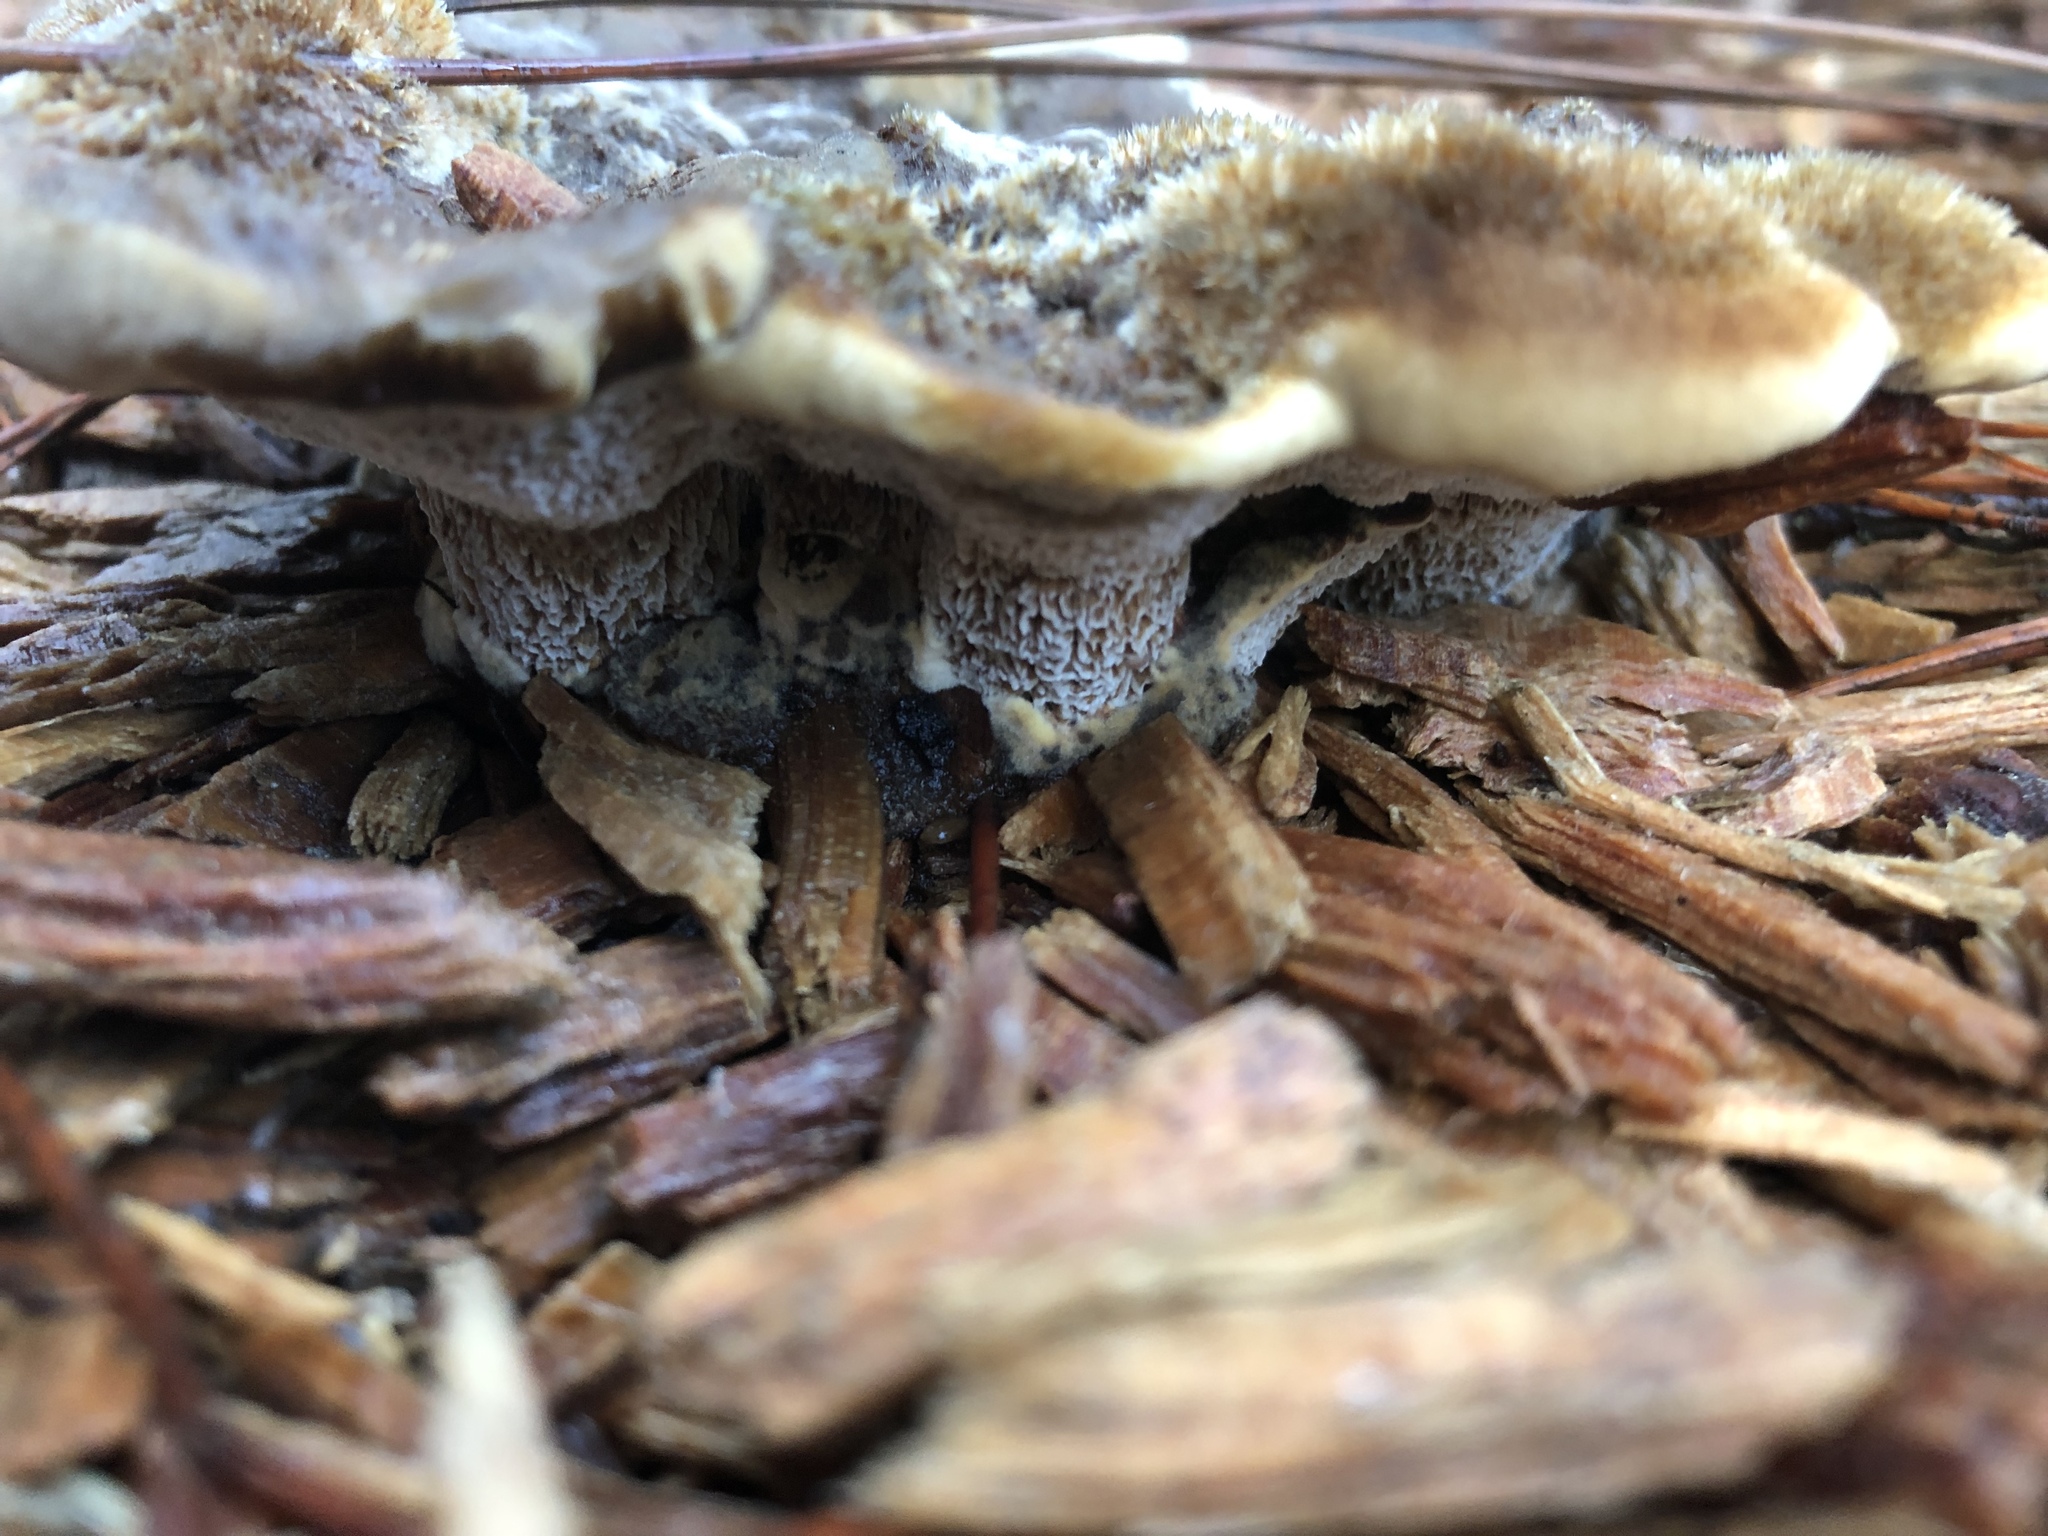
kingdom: Fungi
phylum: Basidiomycota
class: Agaricomycetes
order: Polyporales
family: Laetiporaceae
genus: Phaeolus
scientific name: Phaeolus schweinitzii
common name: Dyer's mazegill
